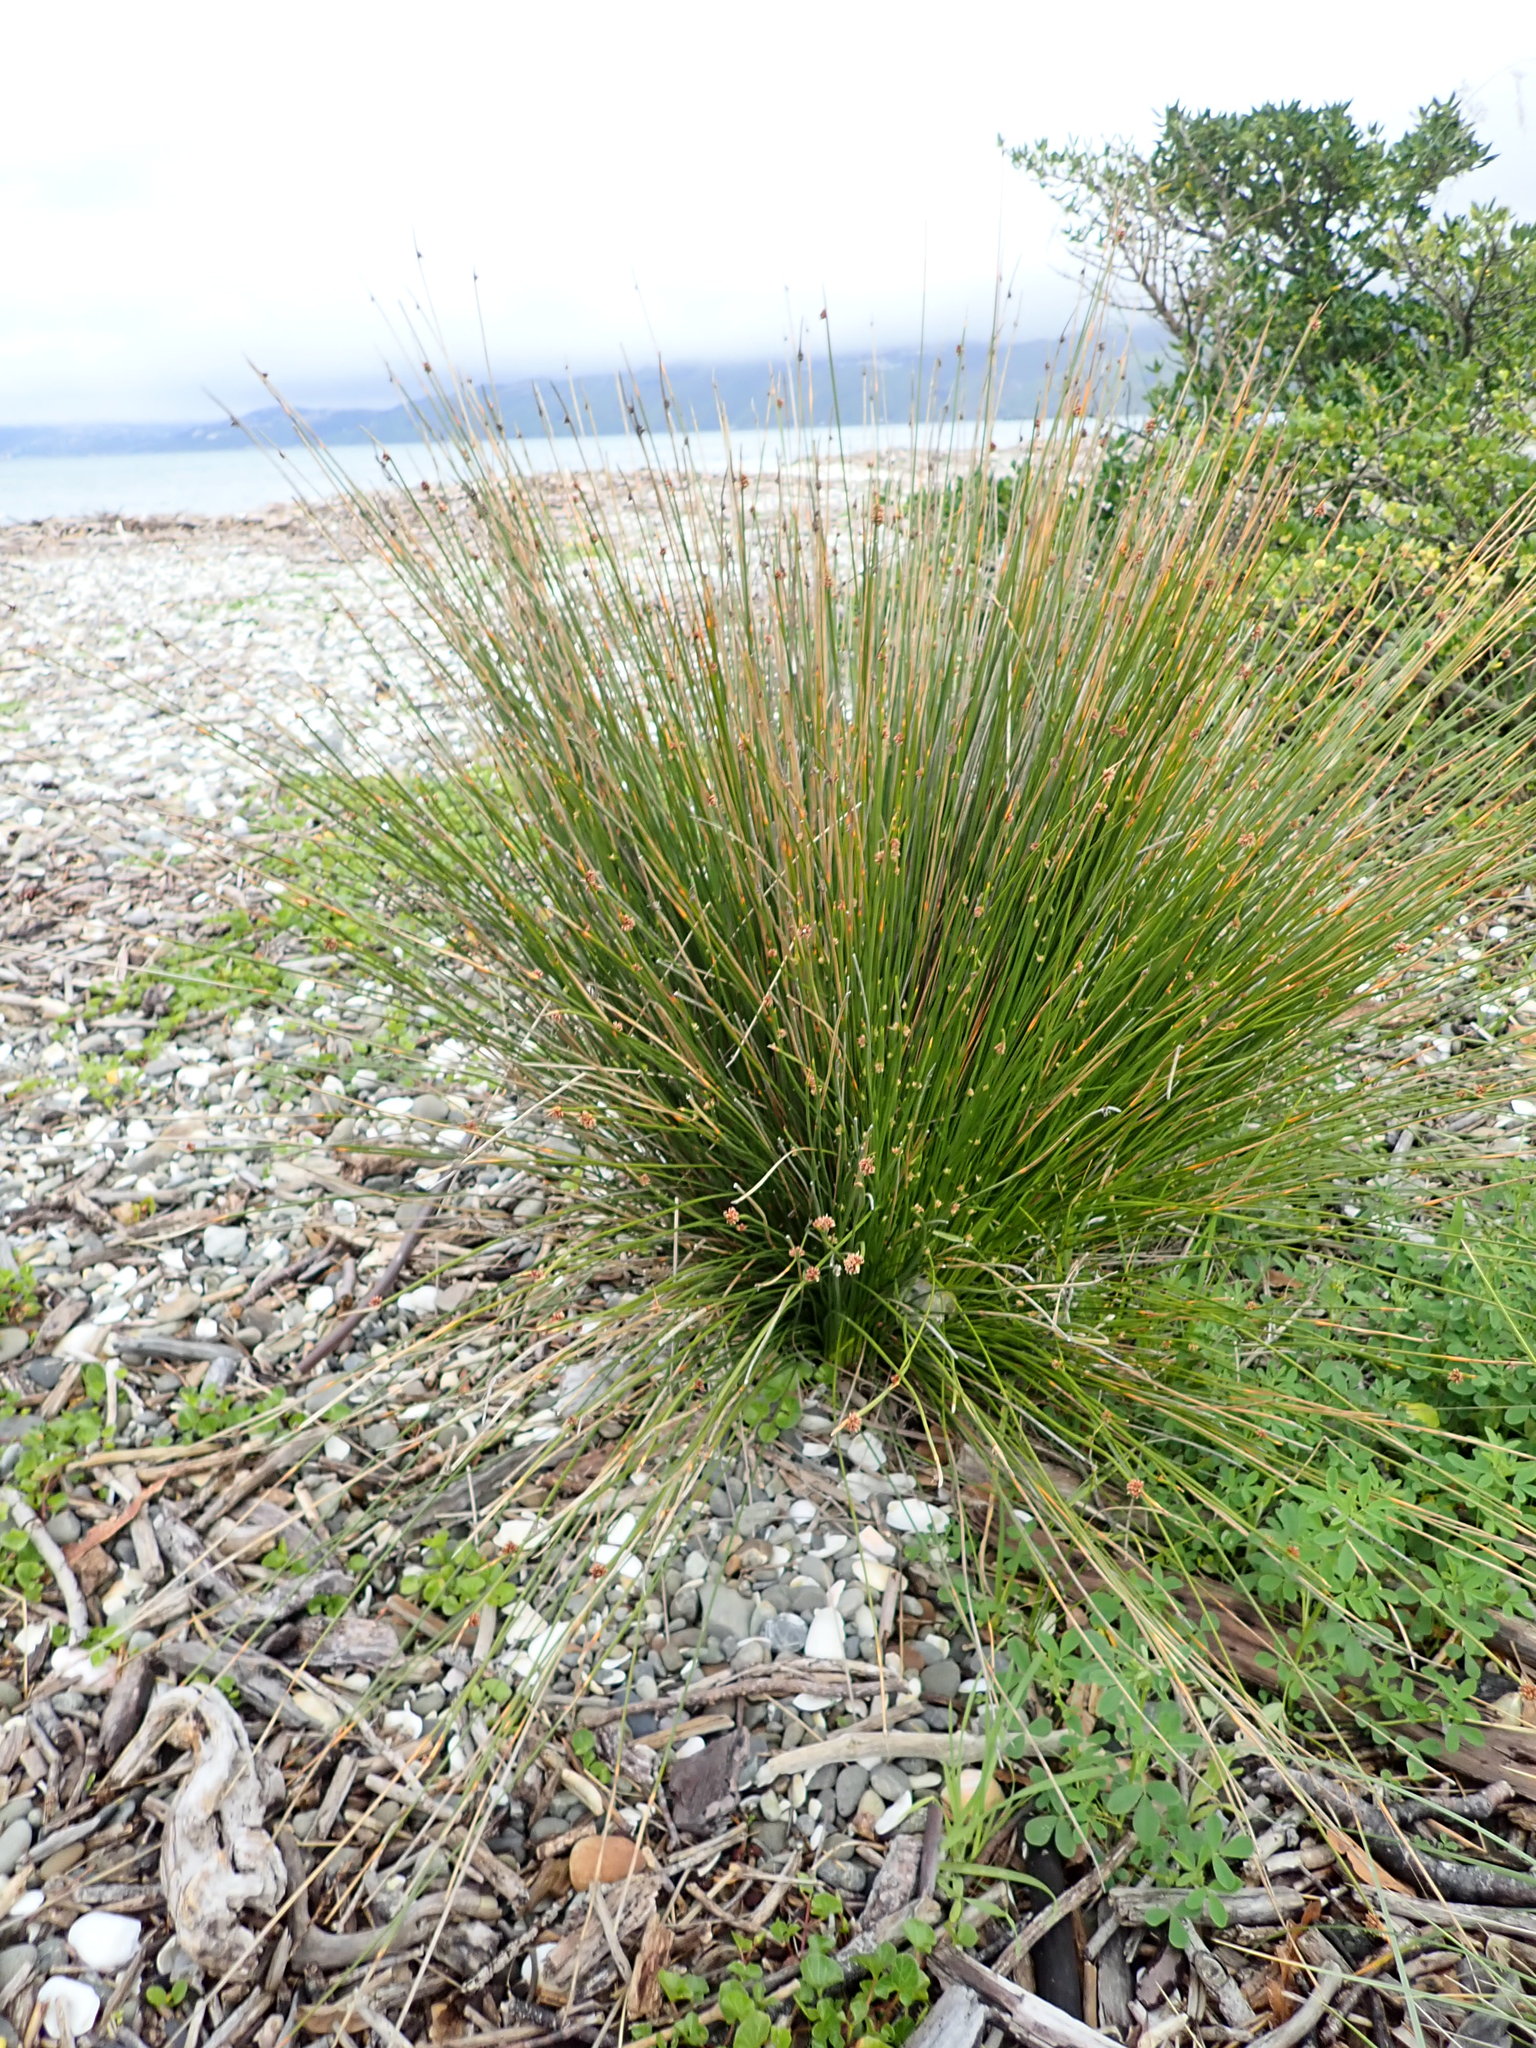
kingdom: Plantae
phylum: Tracheophyta
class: Liliopsida
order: Poales
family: Cyperaceae
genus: Ficinia
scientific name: Ficinia nodosa
